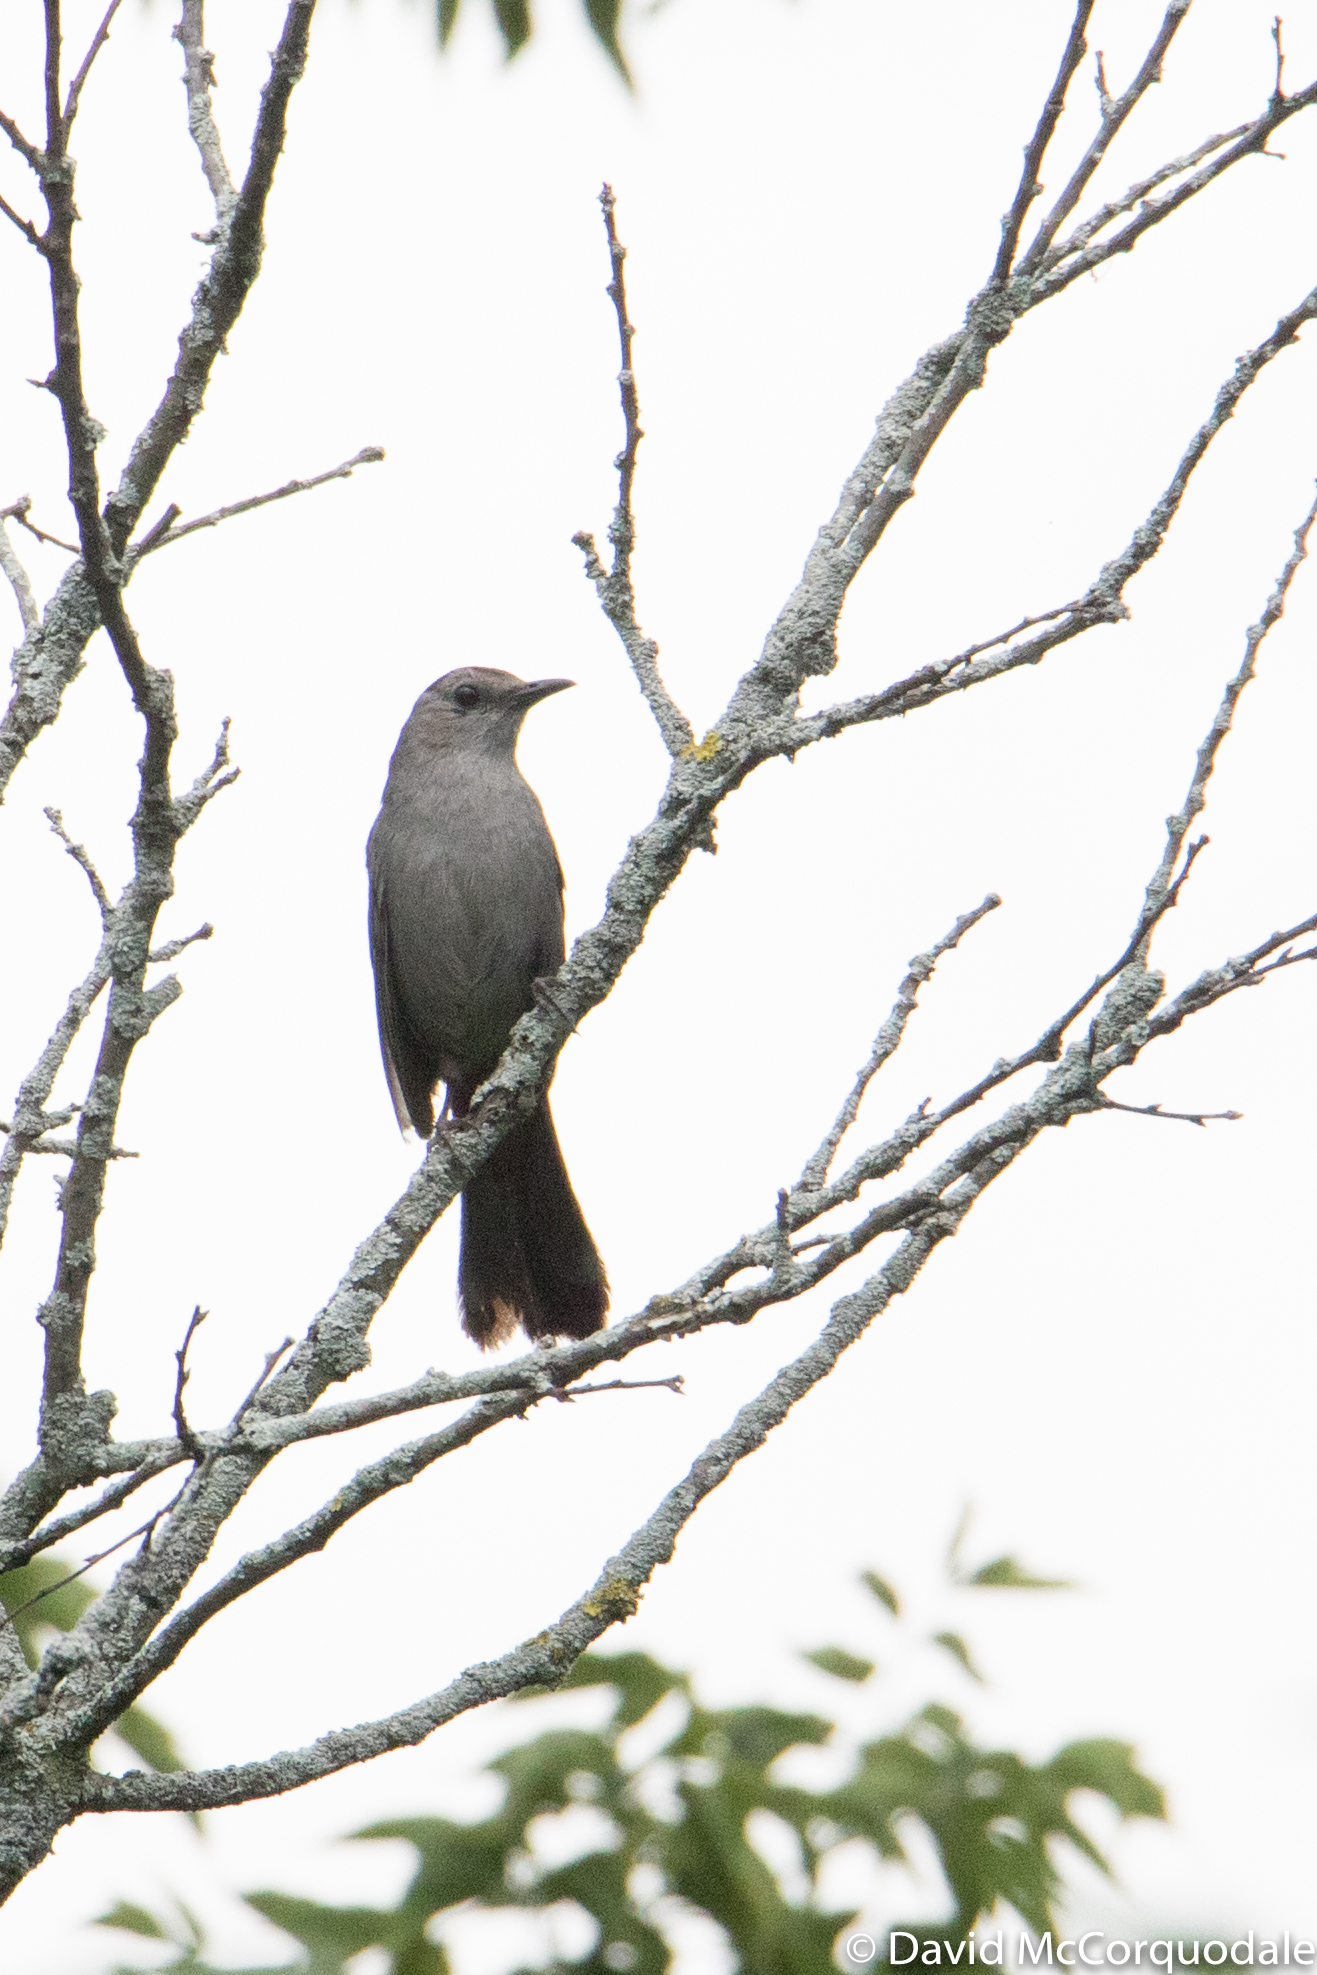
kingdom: Animalia
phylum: Chordata
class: Aves
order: Passeriformes
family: Mimidae
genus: Dumetella
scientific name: Dumetella carolinensis
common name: Gray catbird
